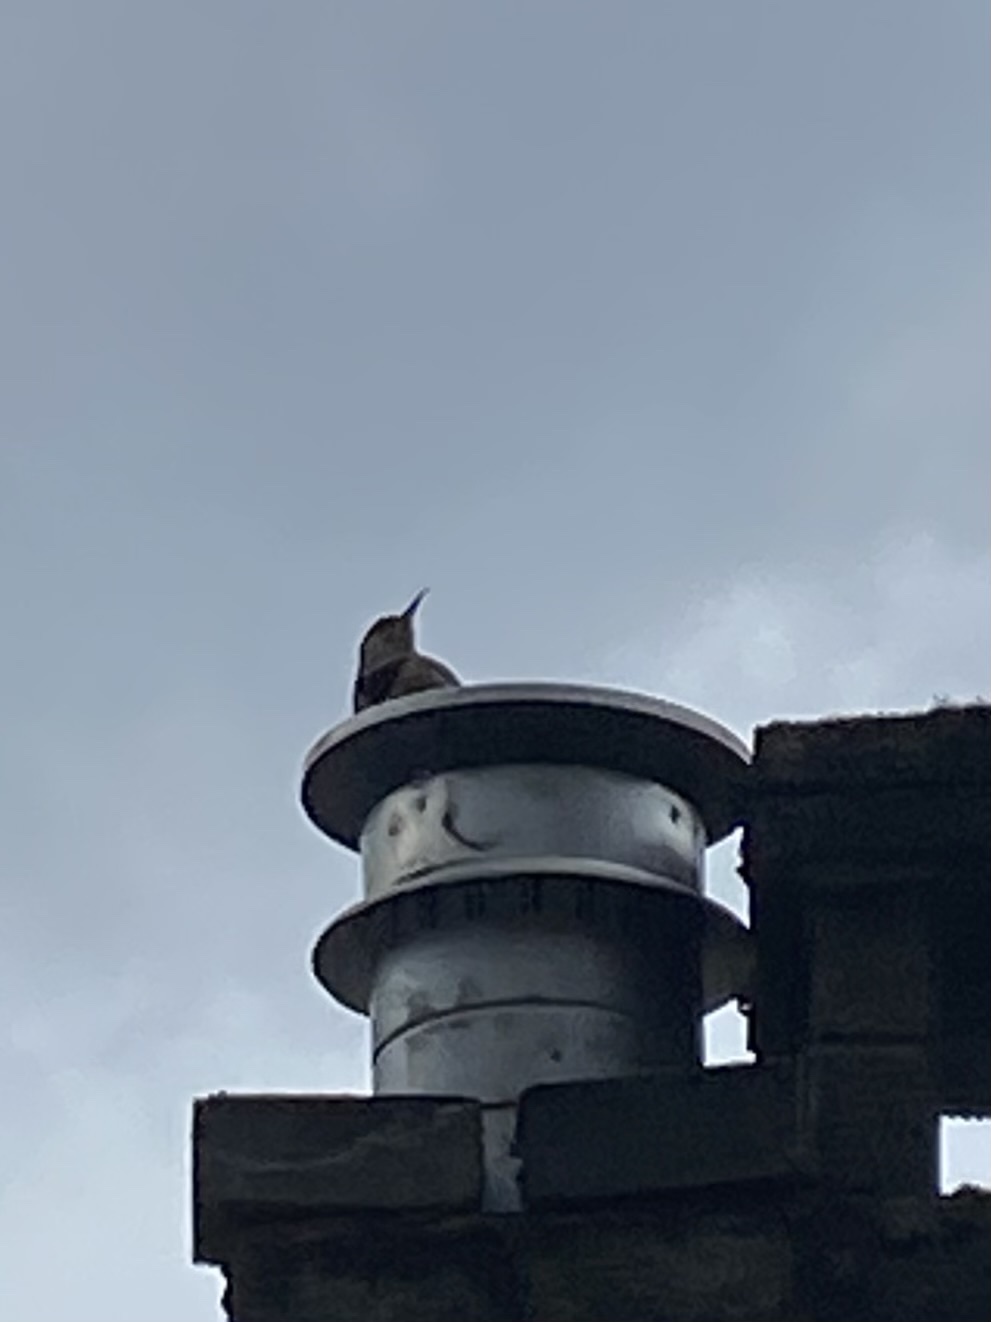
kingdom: Animalia
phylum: Chordata
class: Aves
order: Piciformes
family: Picidae
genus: Colaptes
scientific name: Colaptes auratus
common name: Northern flicker
